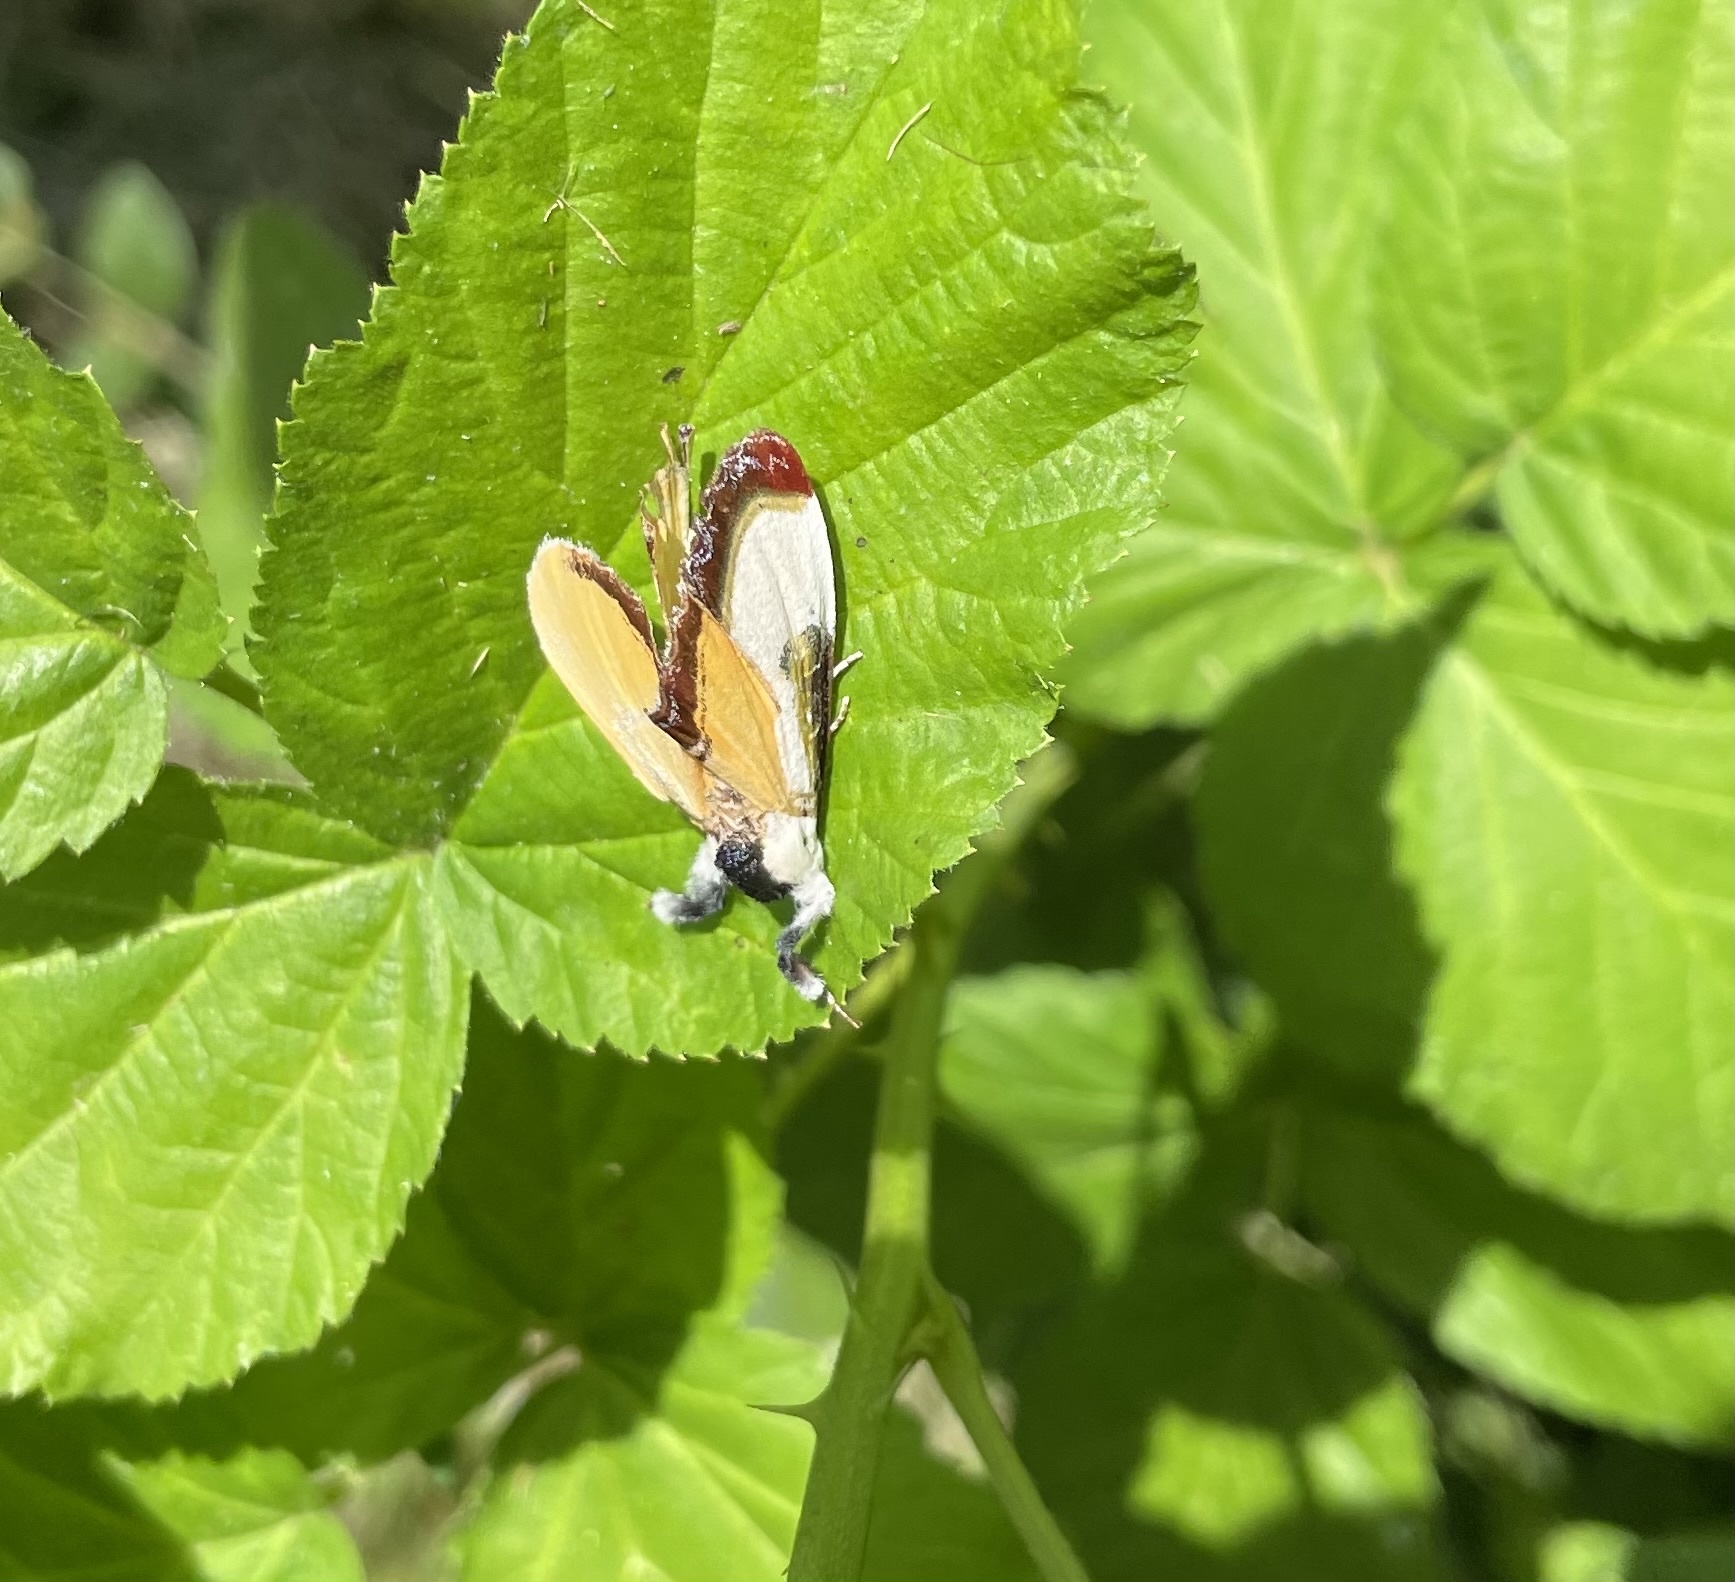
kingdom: Animalia
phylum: Arthropoda
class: Insecta
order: Lepidoptera
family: Noctuidae
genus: Eudryas
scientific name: Eudryas grata
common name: Beautiful wood-nymph
